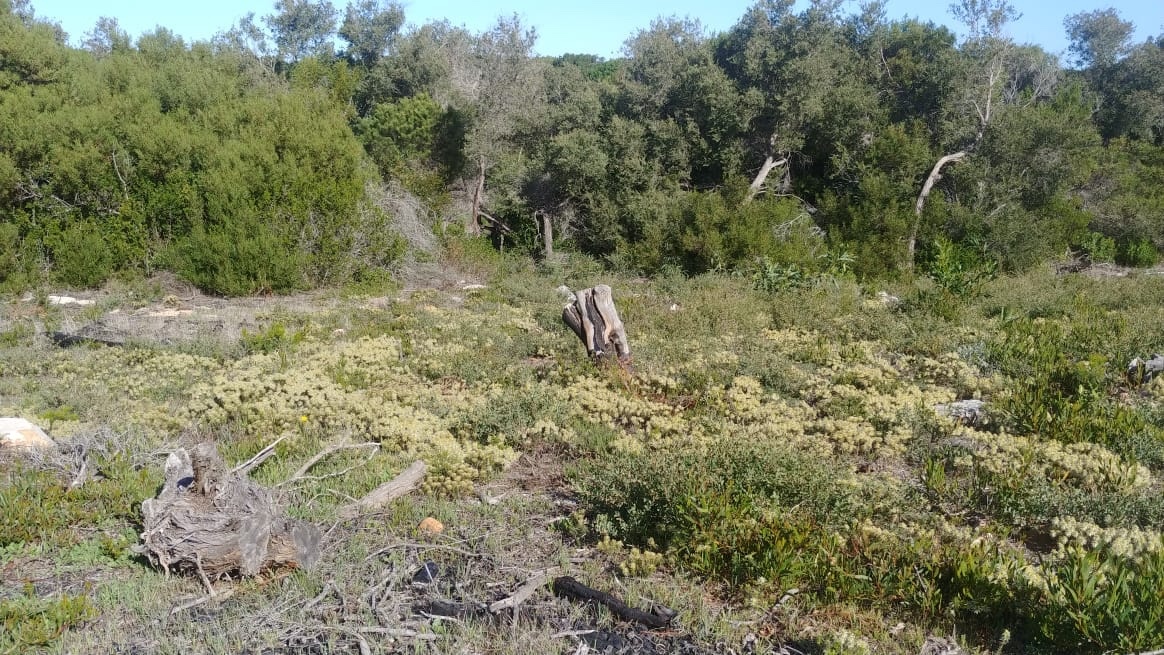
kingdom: Plantae
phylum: Tracheophyta
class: Magnoliopsida
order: Rosales
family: Rhamnaceae
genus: Phylica
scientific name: Phylica plumosa
